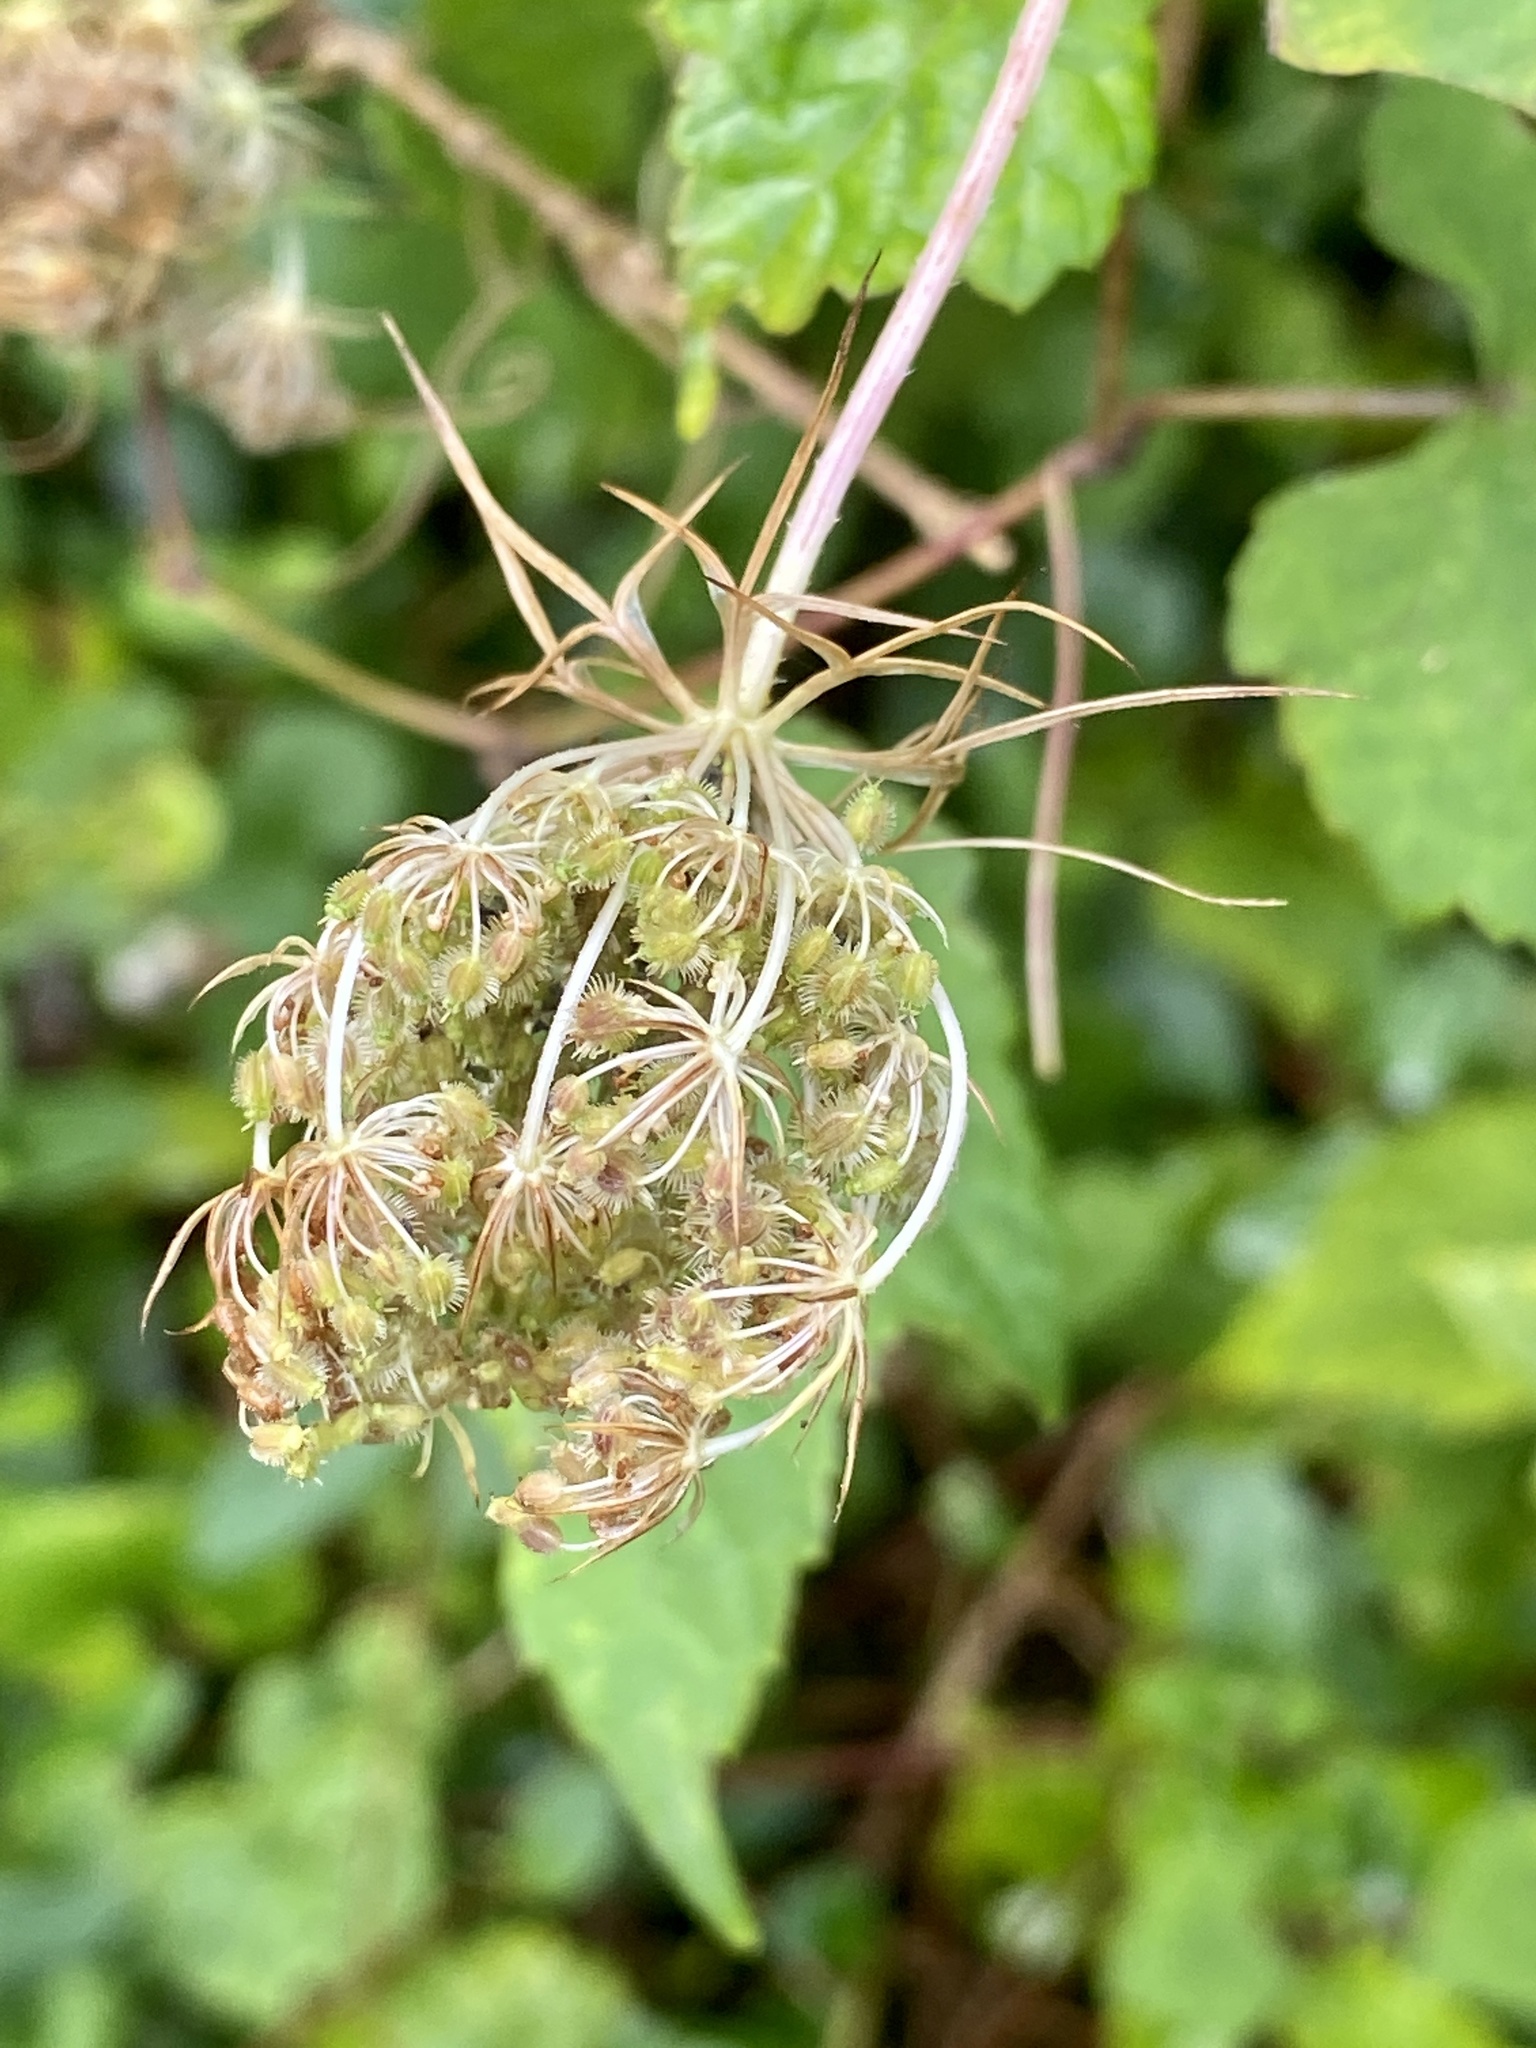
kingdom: Plantae
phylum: Tracheophyta
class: Magnoliopsida
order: Apiales
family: Apiaceae
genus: Daucus
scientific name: Daucus carota
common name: Wild carrot
